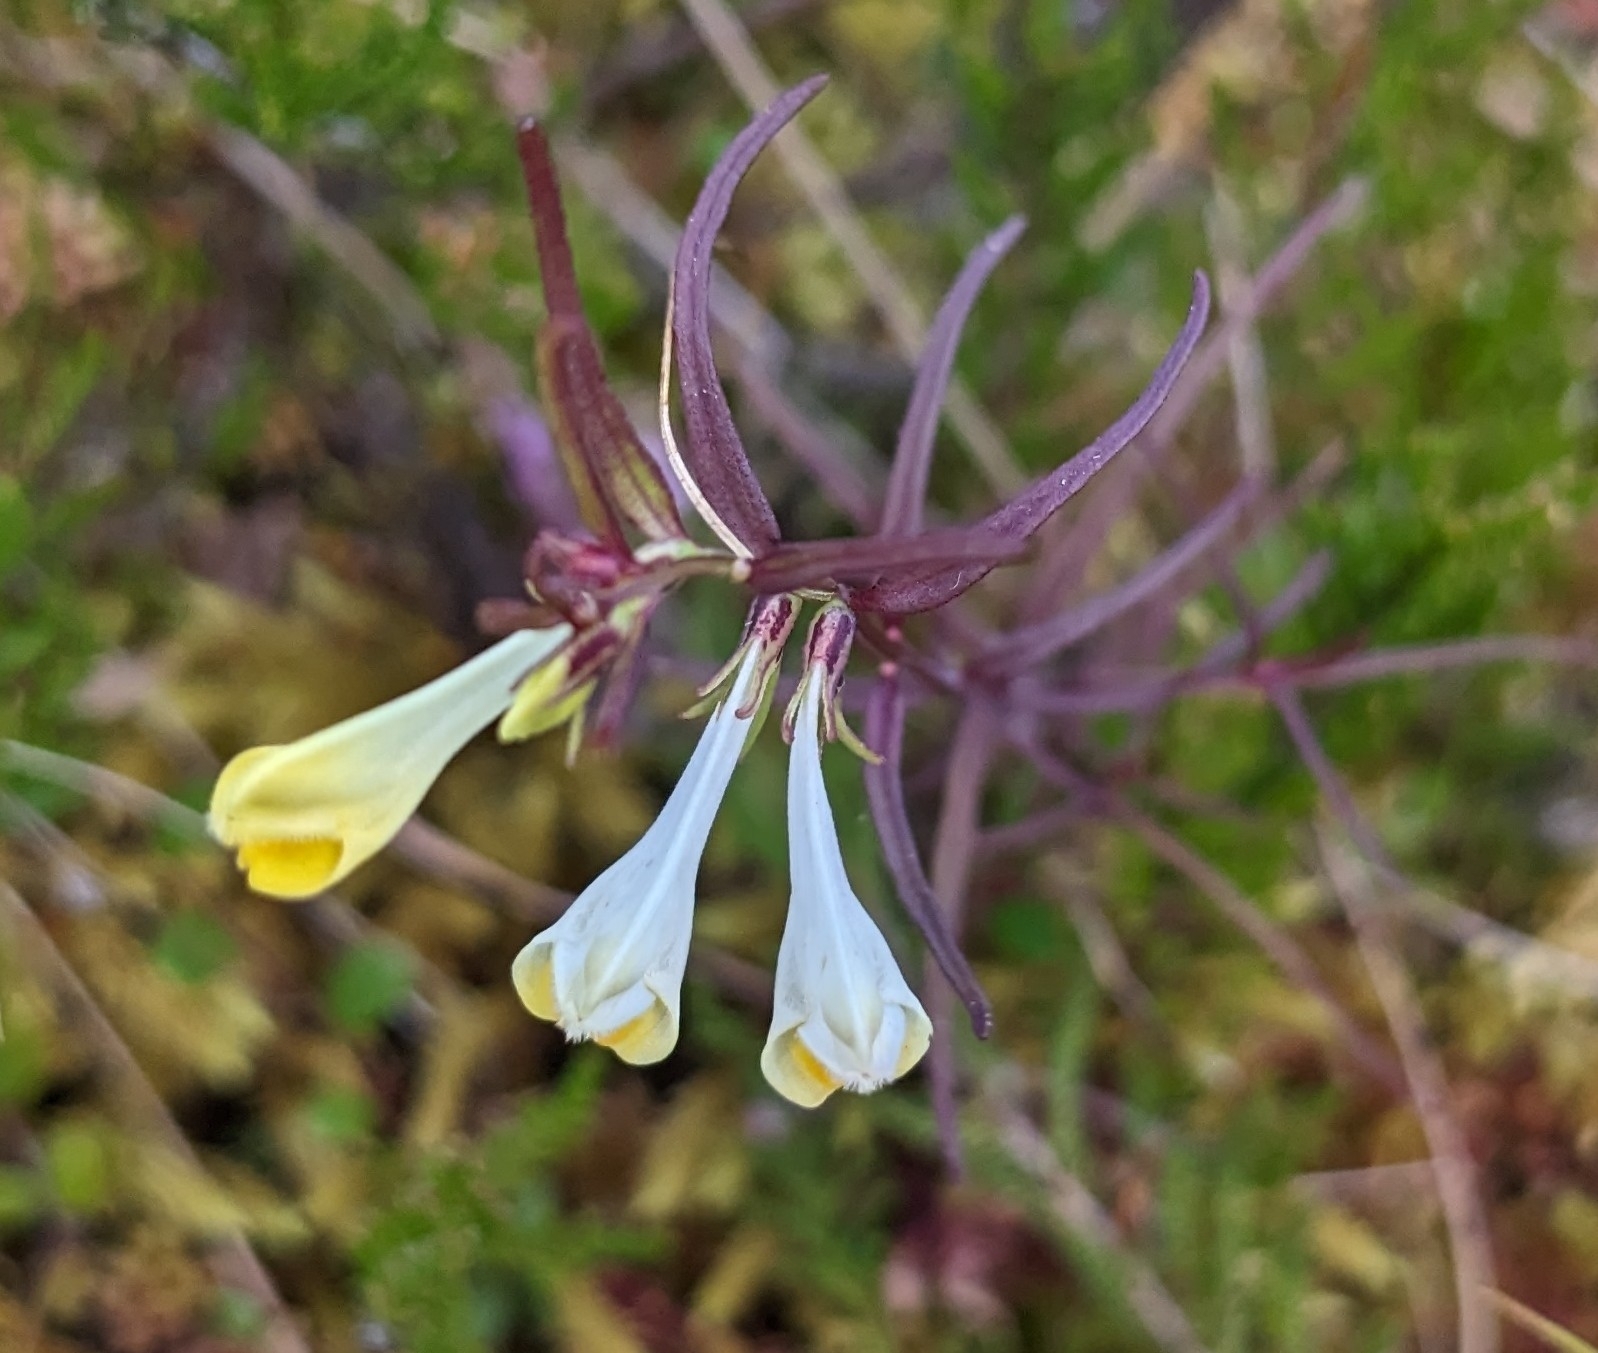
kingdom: Plantae
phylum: Tracheophyta
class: Magnoliopsida
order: Lamiales
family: Orobanchaceae
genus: Melampyrum
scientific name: Melampyrum pratense
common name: Common cow-wheat
